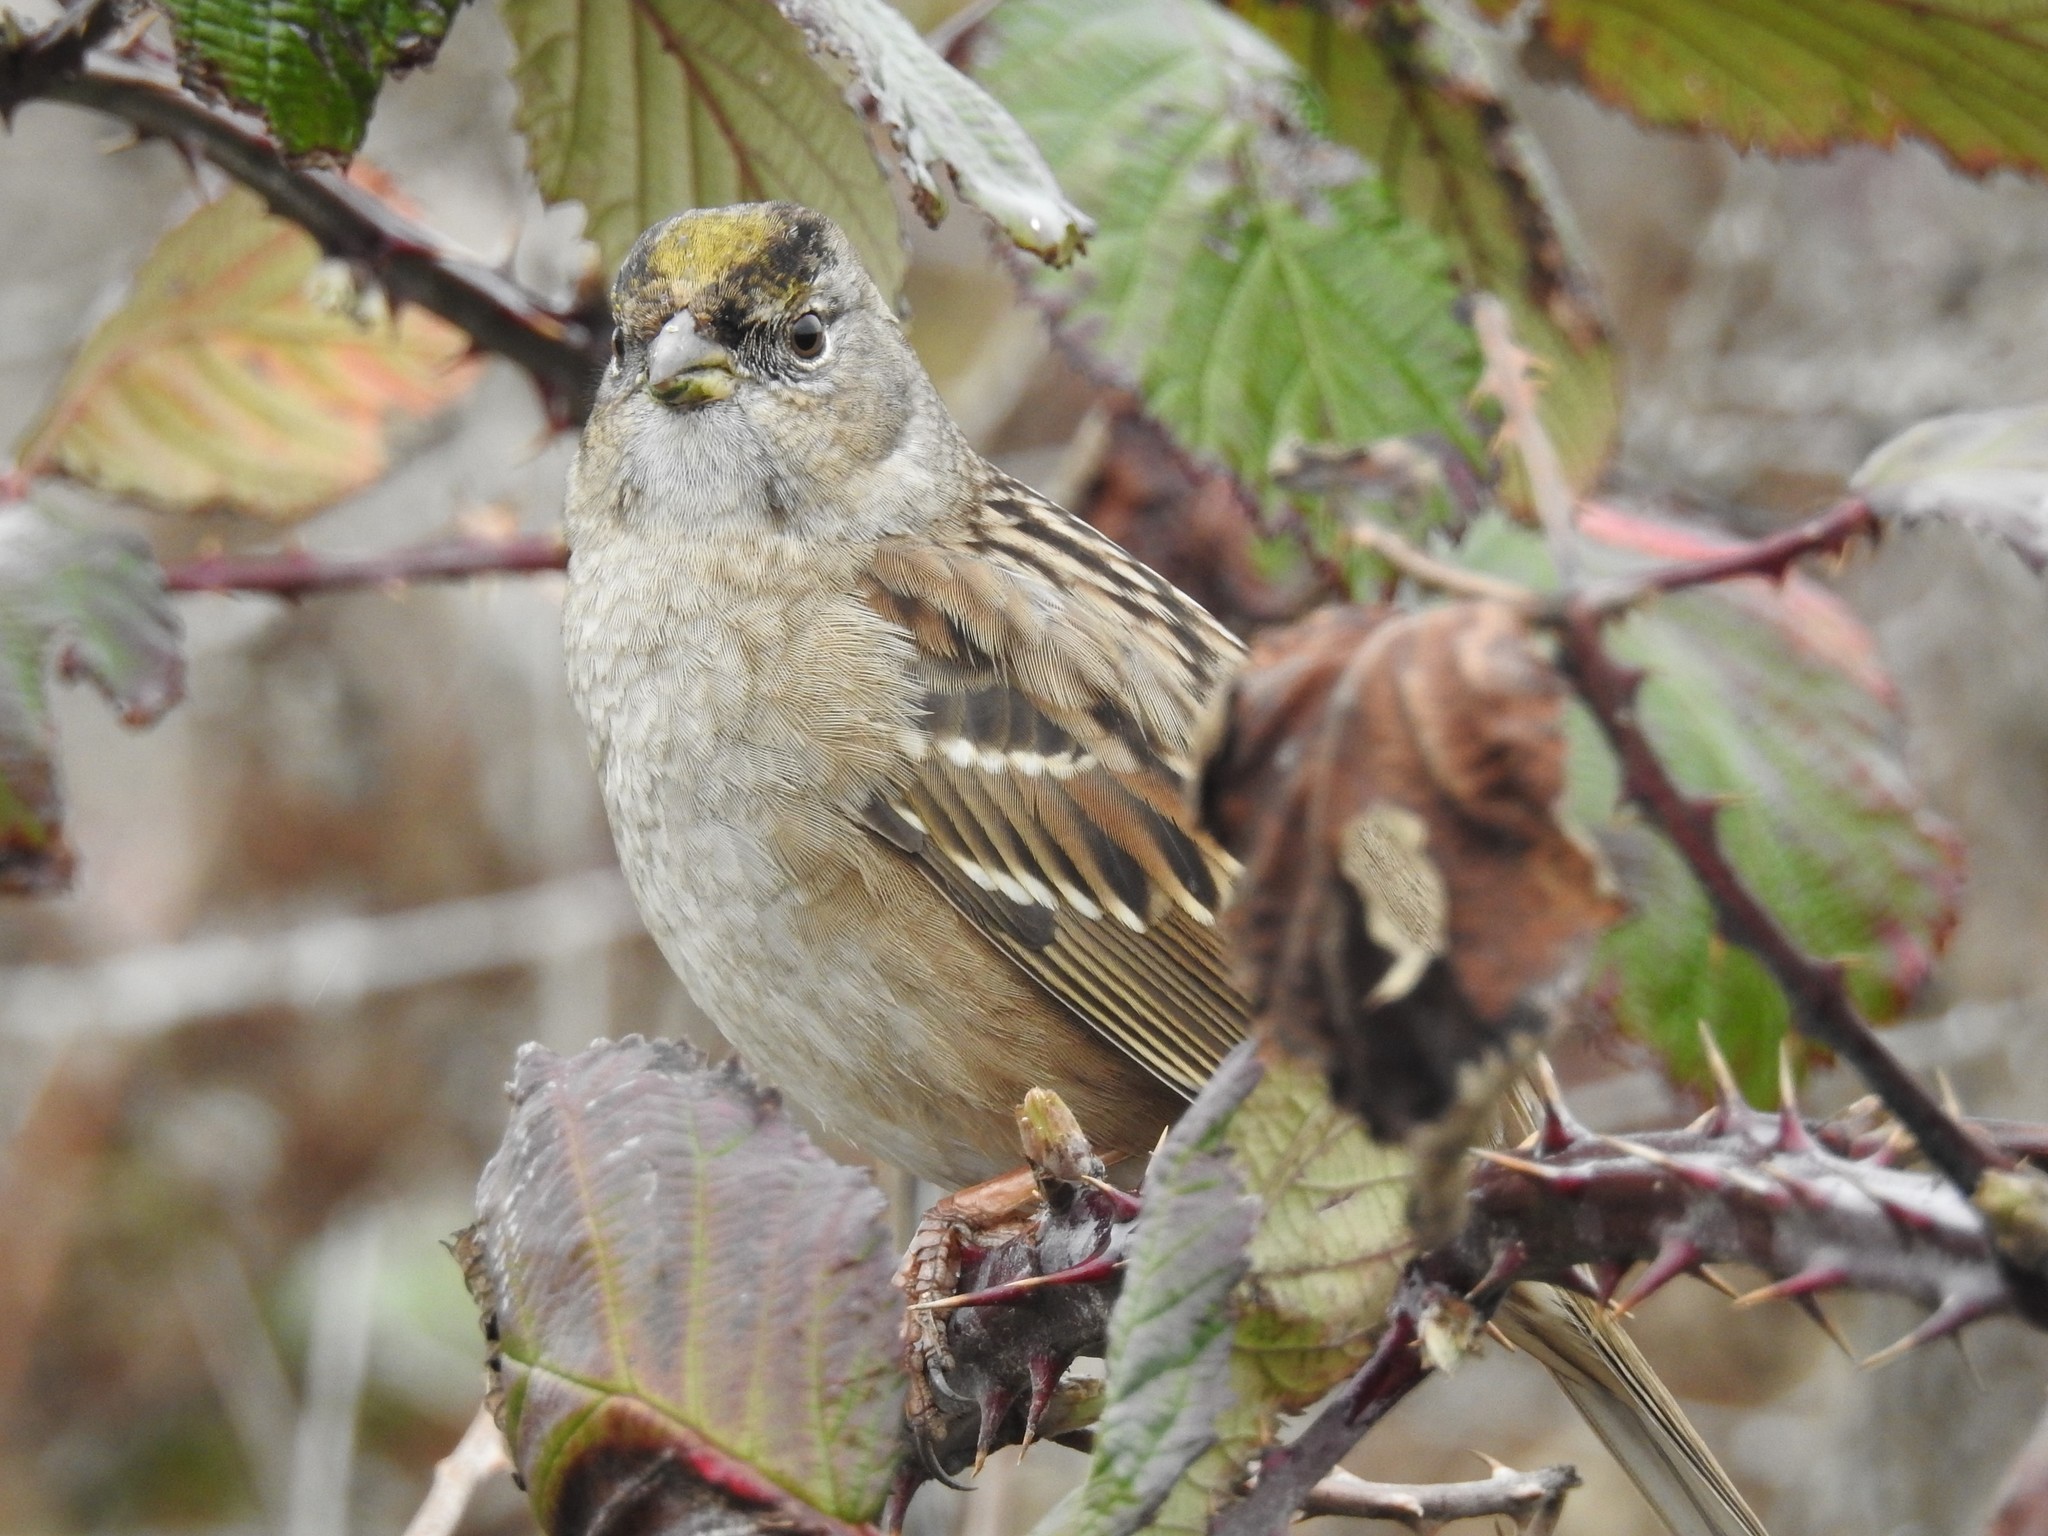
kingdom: Animalia
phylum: Chordata
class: Aves
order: Passeriformes
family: Passerellidae
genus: Zonotrichia
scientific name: Zonotrichia atricapilla
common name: Golden-crowned sparrow
